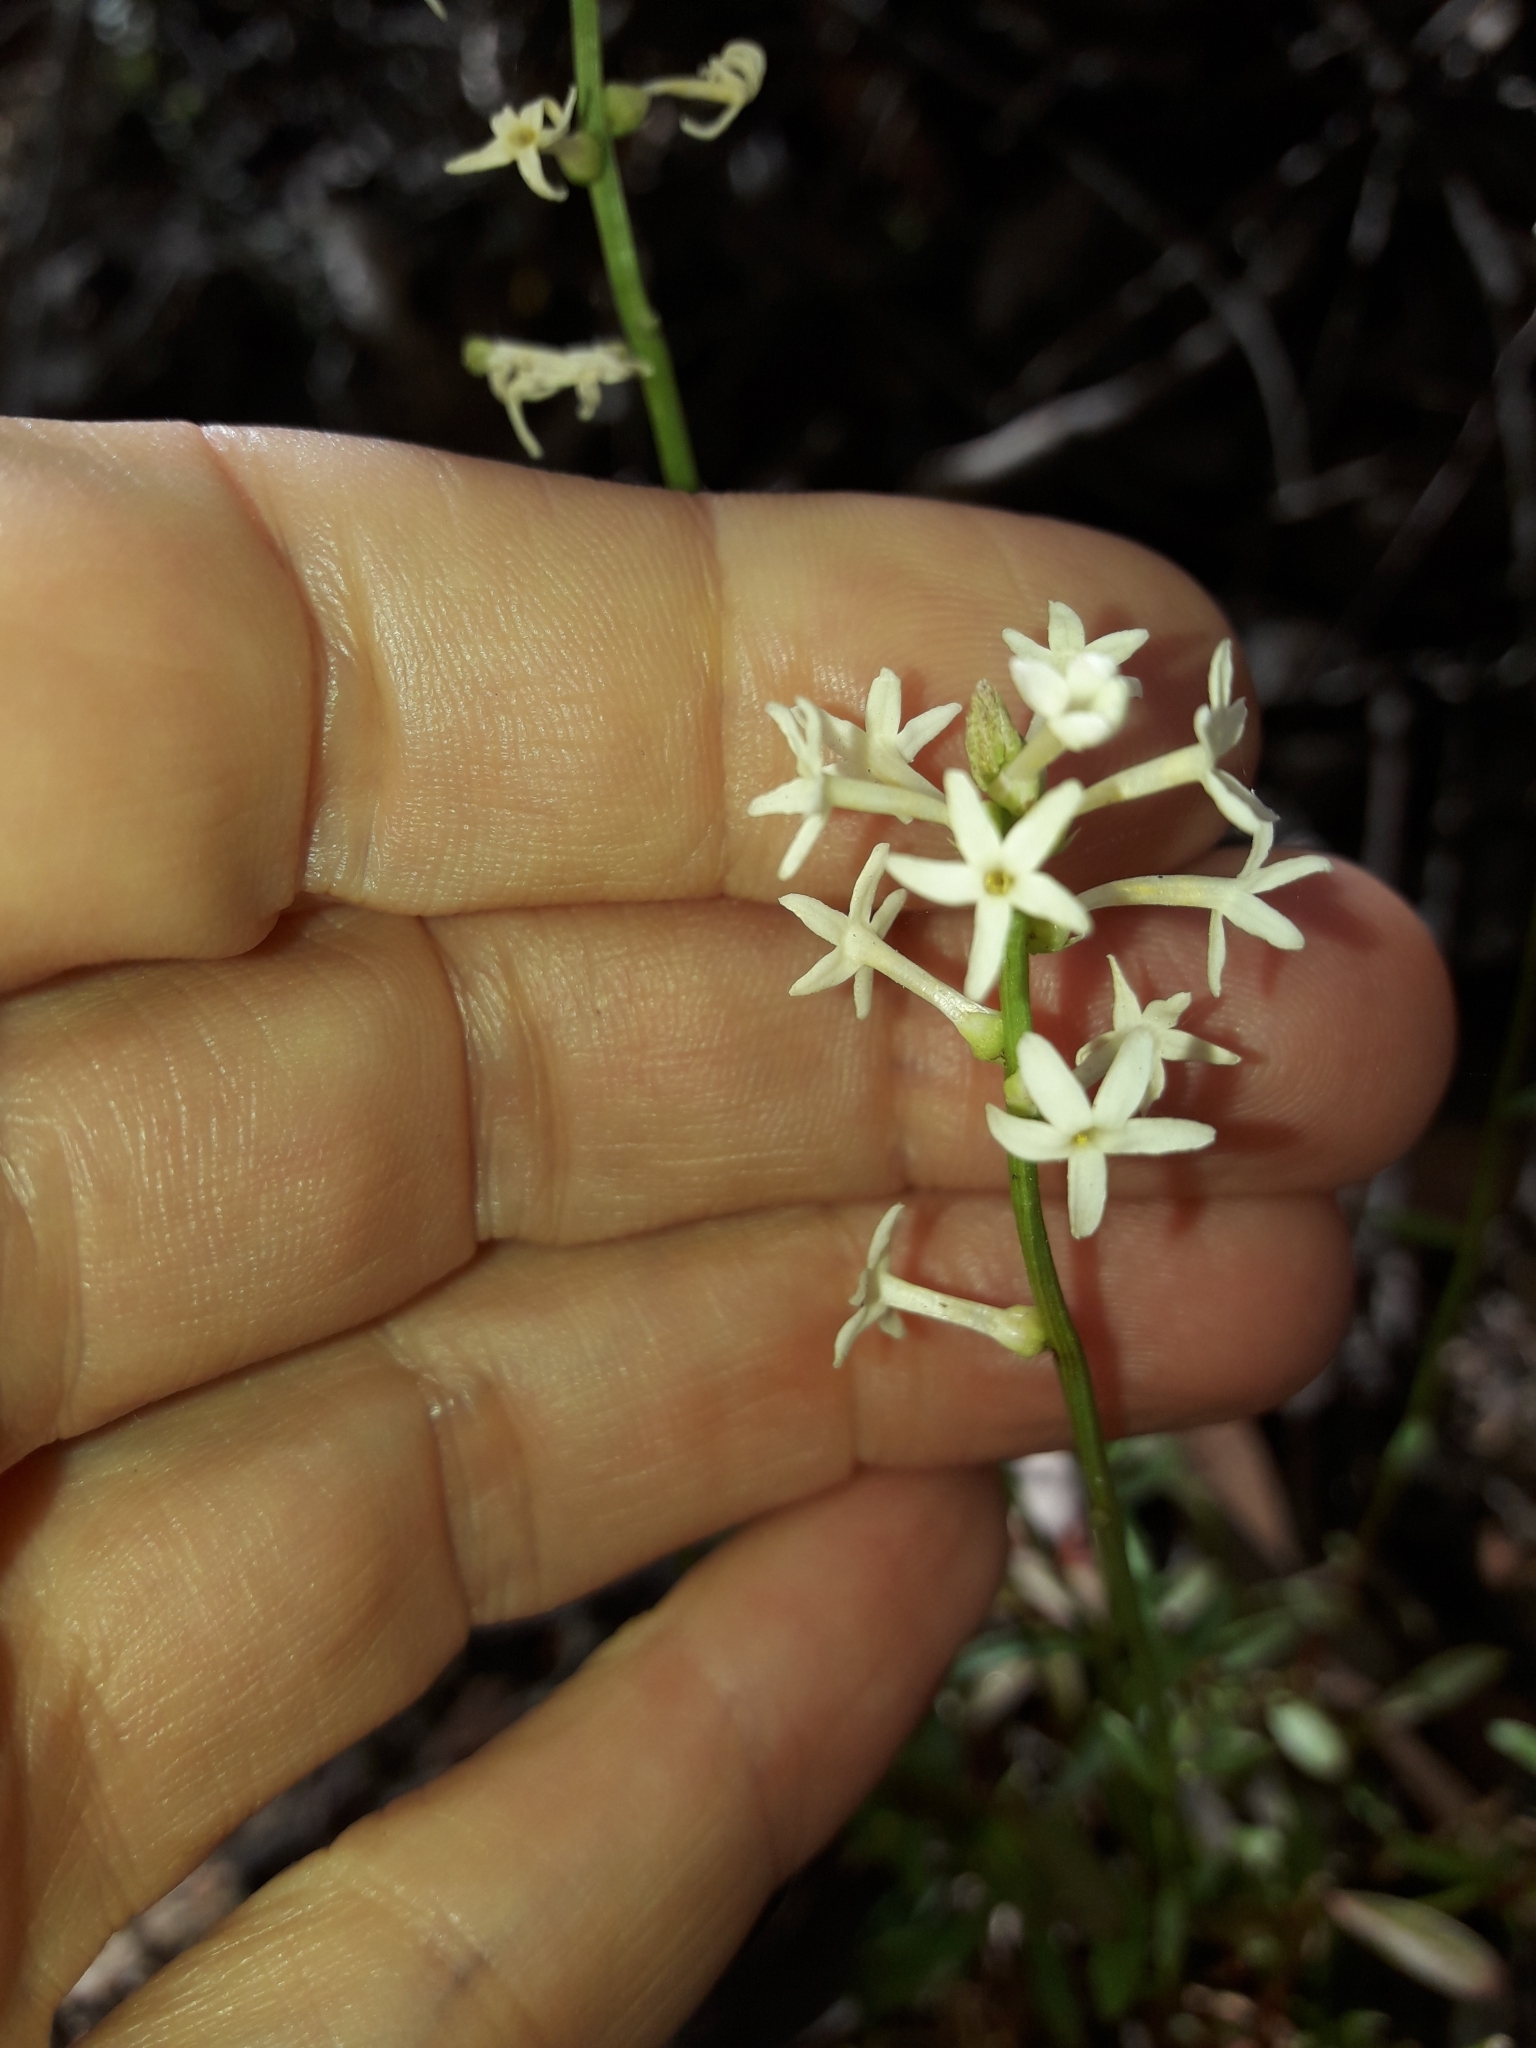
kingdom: Plantae
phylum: Tracheophyta
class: Magnoliopsida
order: Celastrales
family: Celastraceae
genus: Stackhousia
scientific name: Stackhousia monogyna
